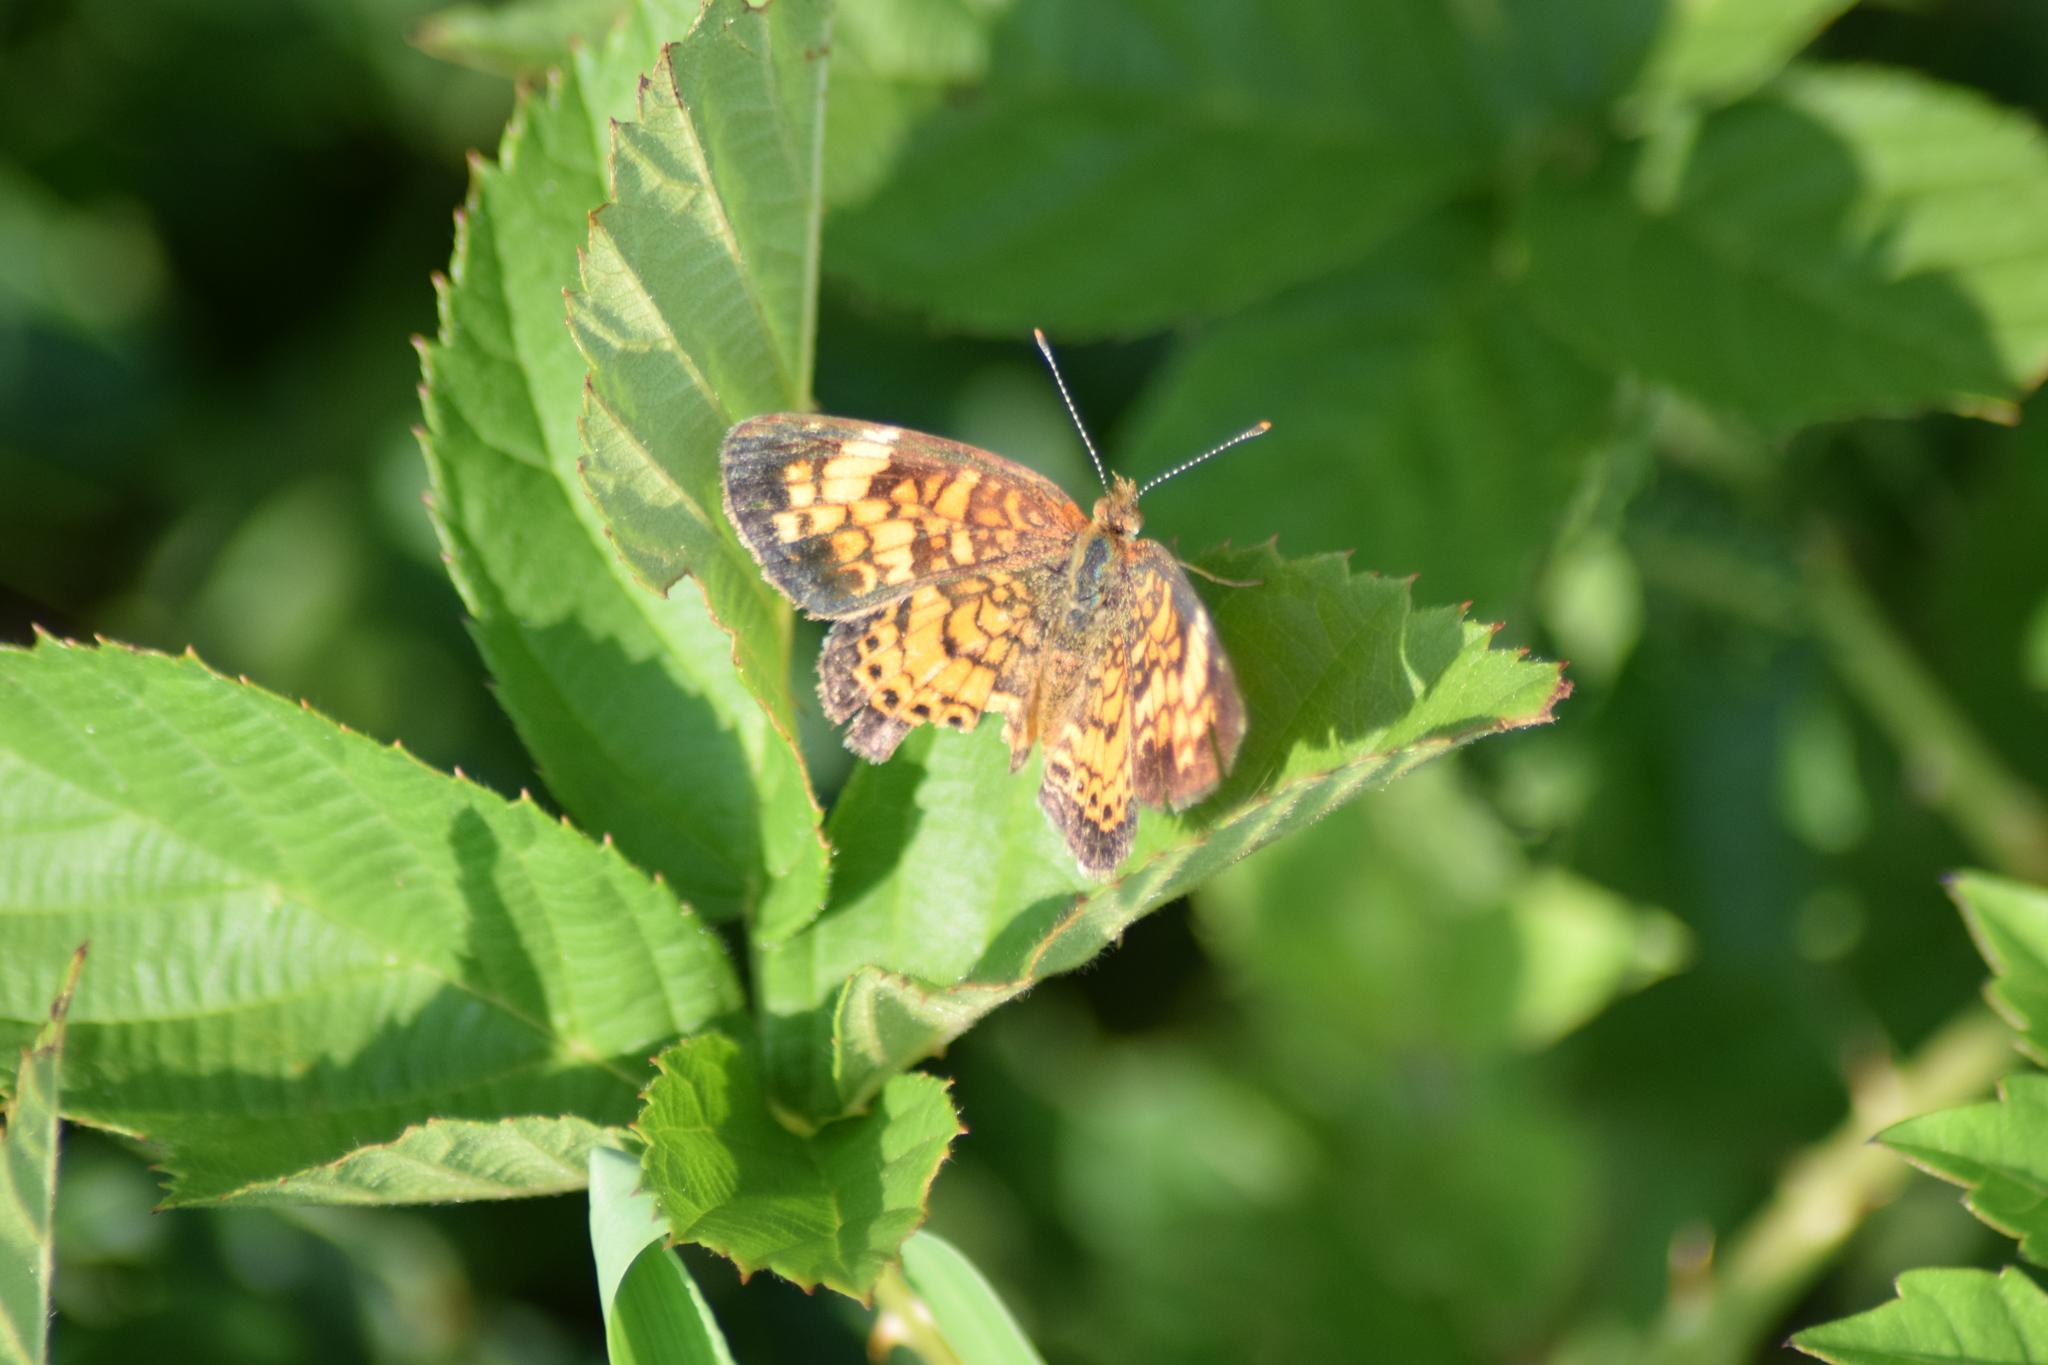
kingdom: Animalia
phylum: Arthropoda
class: Insecta
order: Lepidoptera
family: Nymphalidae
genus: Phyciodes
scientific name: Phyciodes tharos
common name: Pearl crescent
